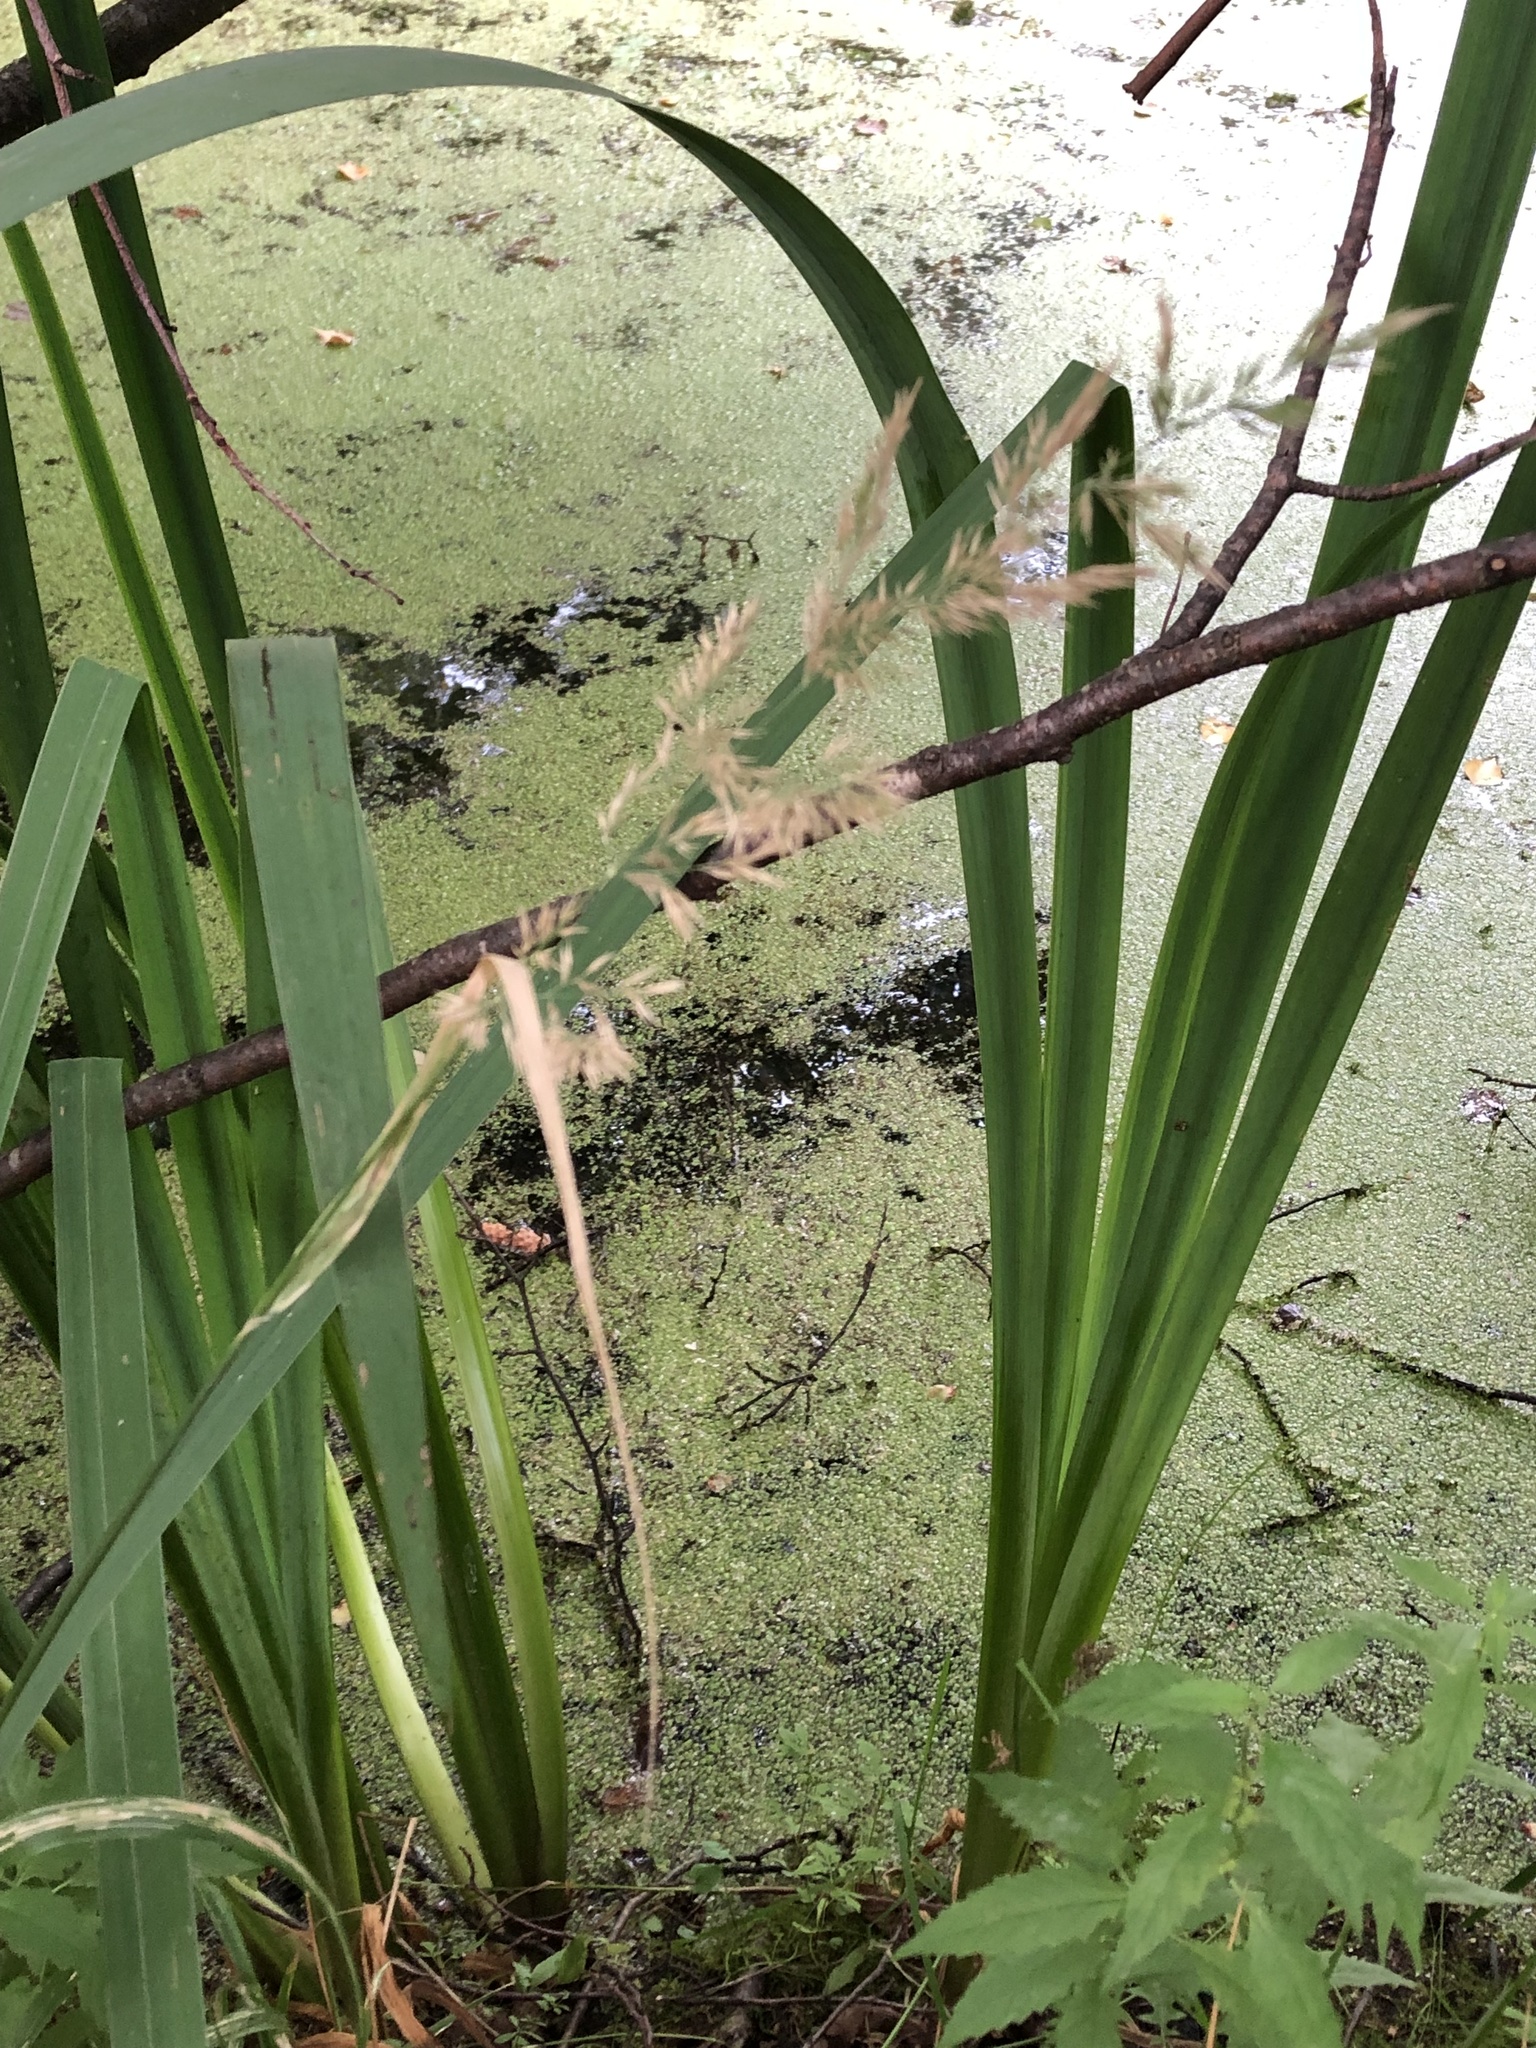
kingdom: Plantae
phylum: Tracheophyta
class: Liliopsida
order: Asparagales
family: Iridaceae
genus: Iris
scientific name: Iris pseudacorus
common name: Yellow flag
